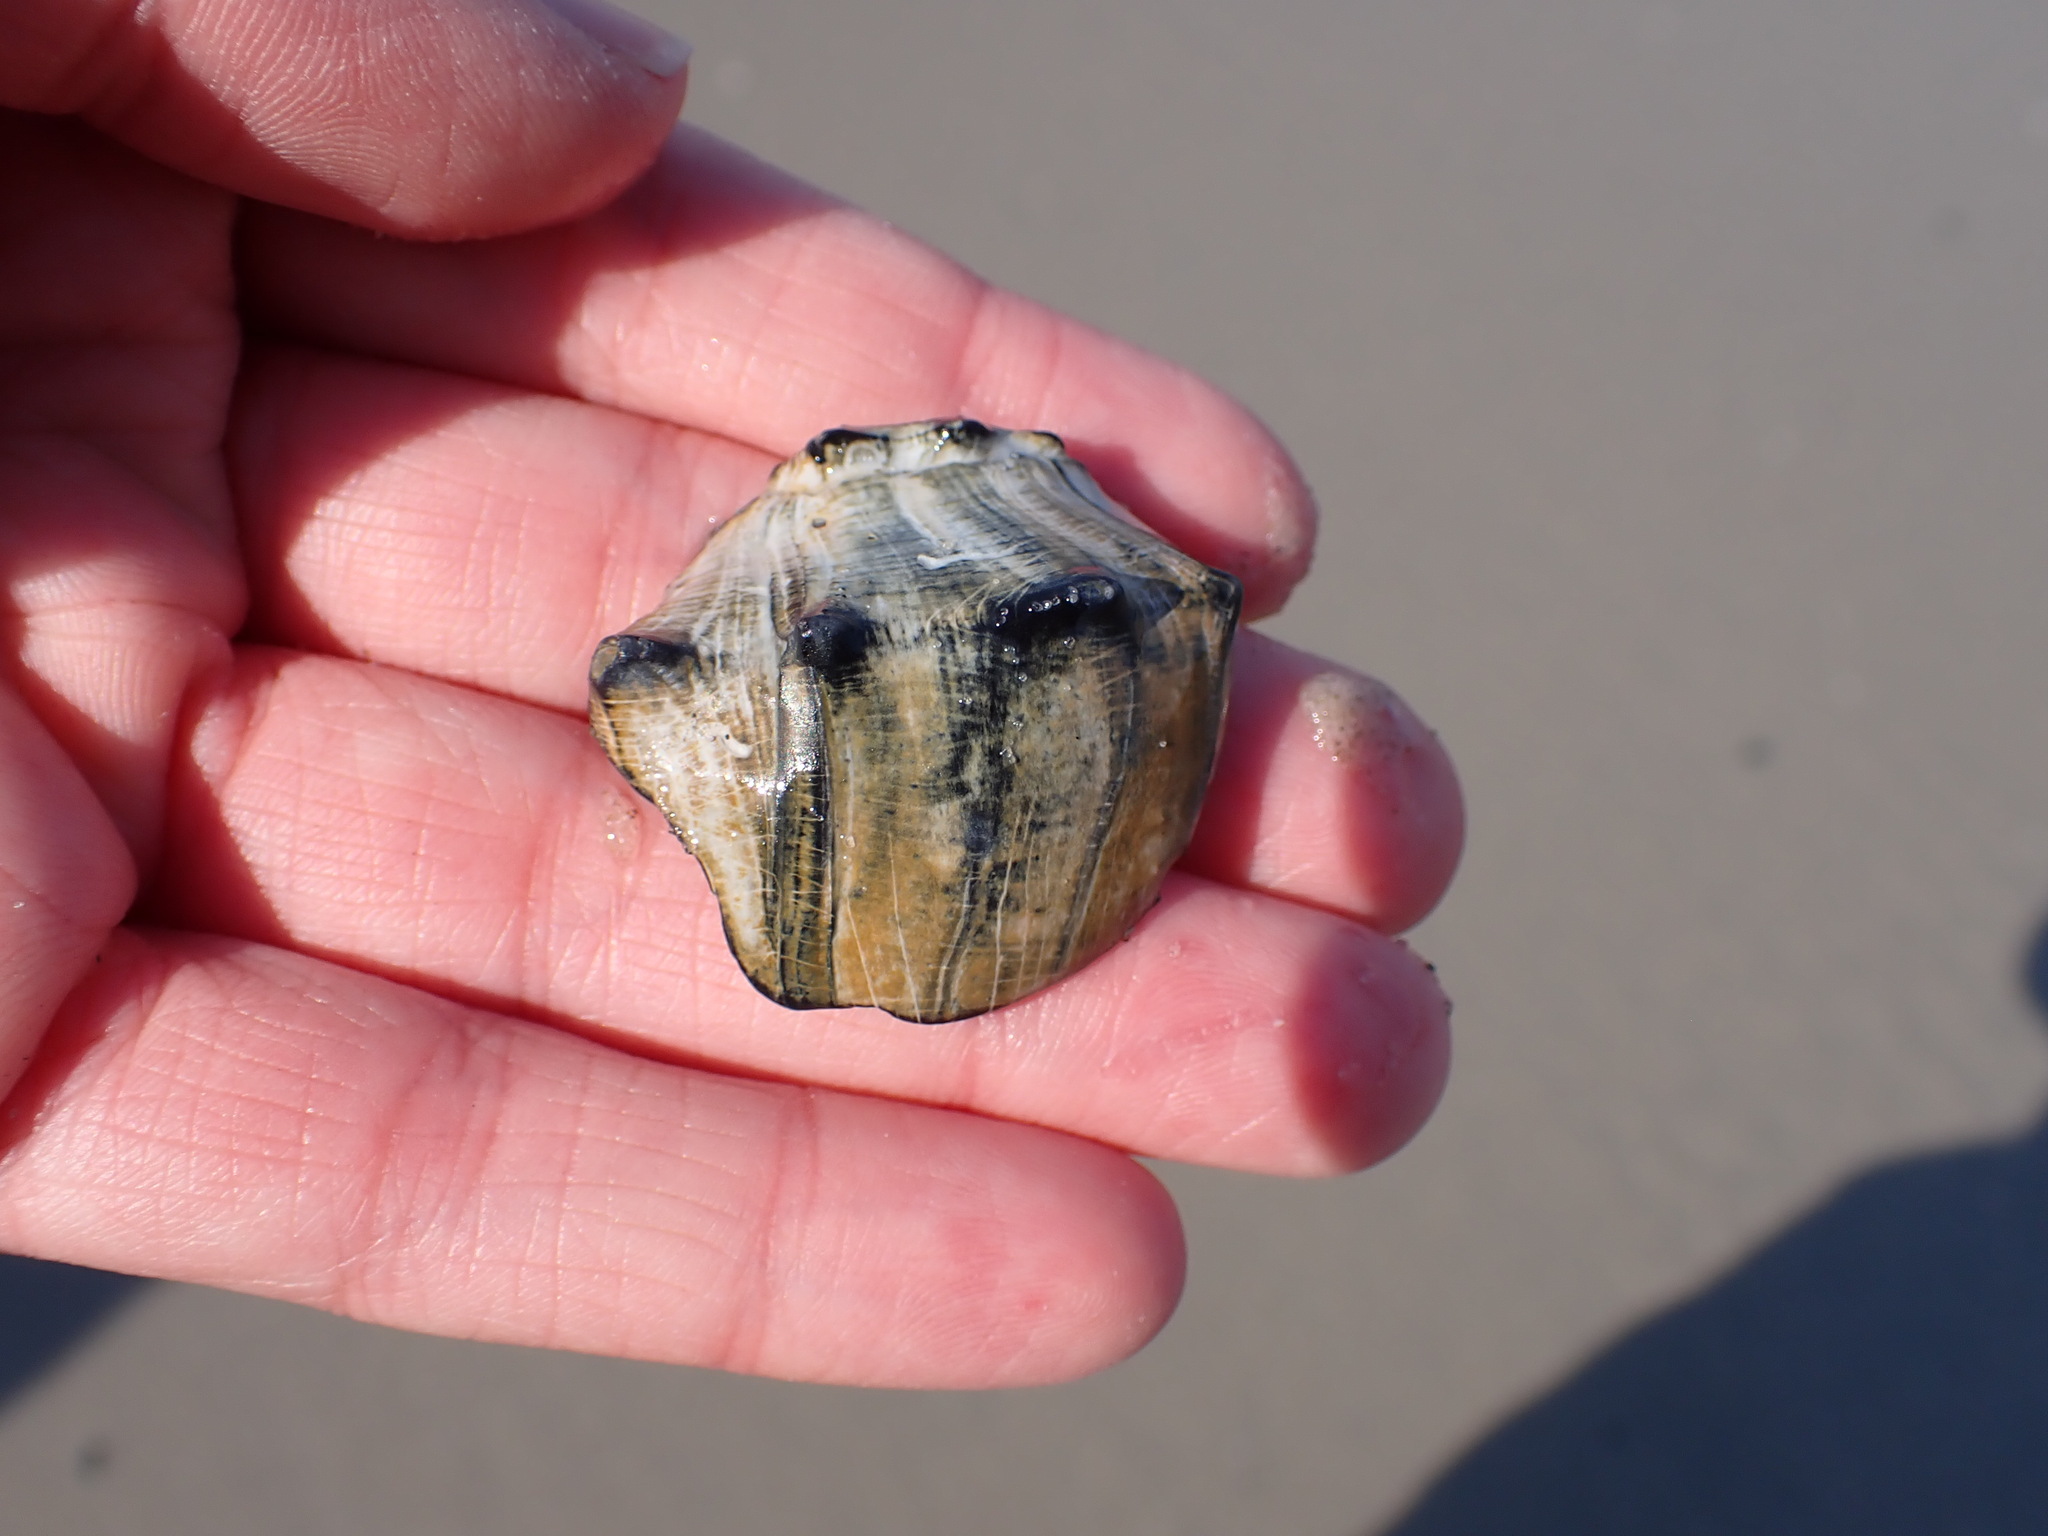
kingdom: Animalia
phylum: Mollusca
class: Gastropoda
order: Neogastropoda
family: Busyconidae
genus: Busycon
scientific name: Busycon carica
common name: Knobbed whelk
